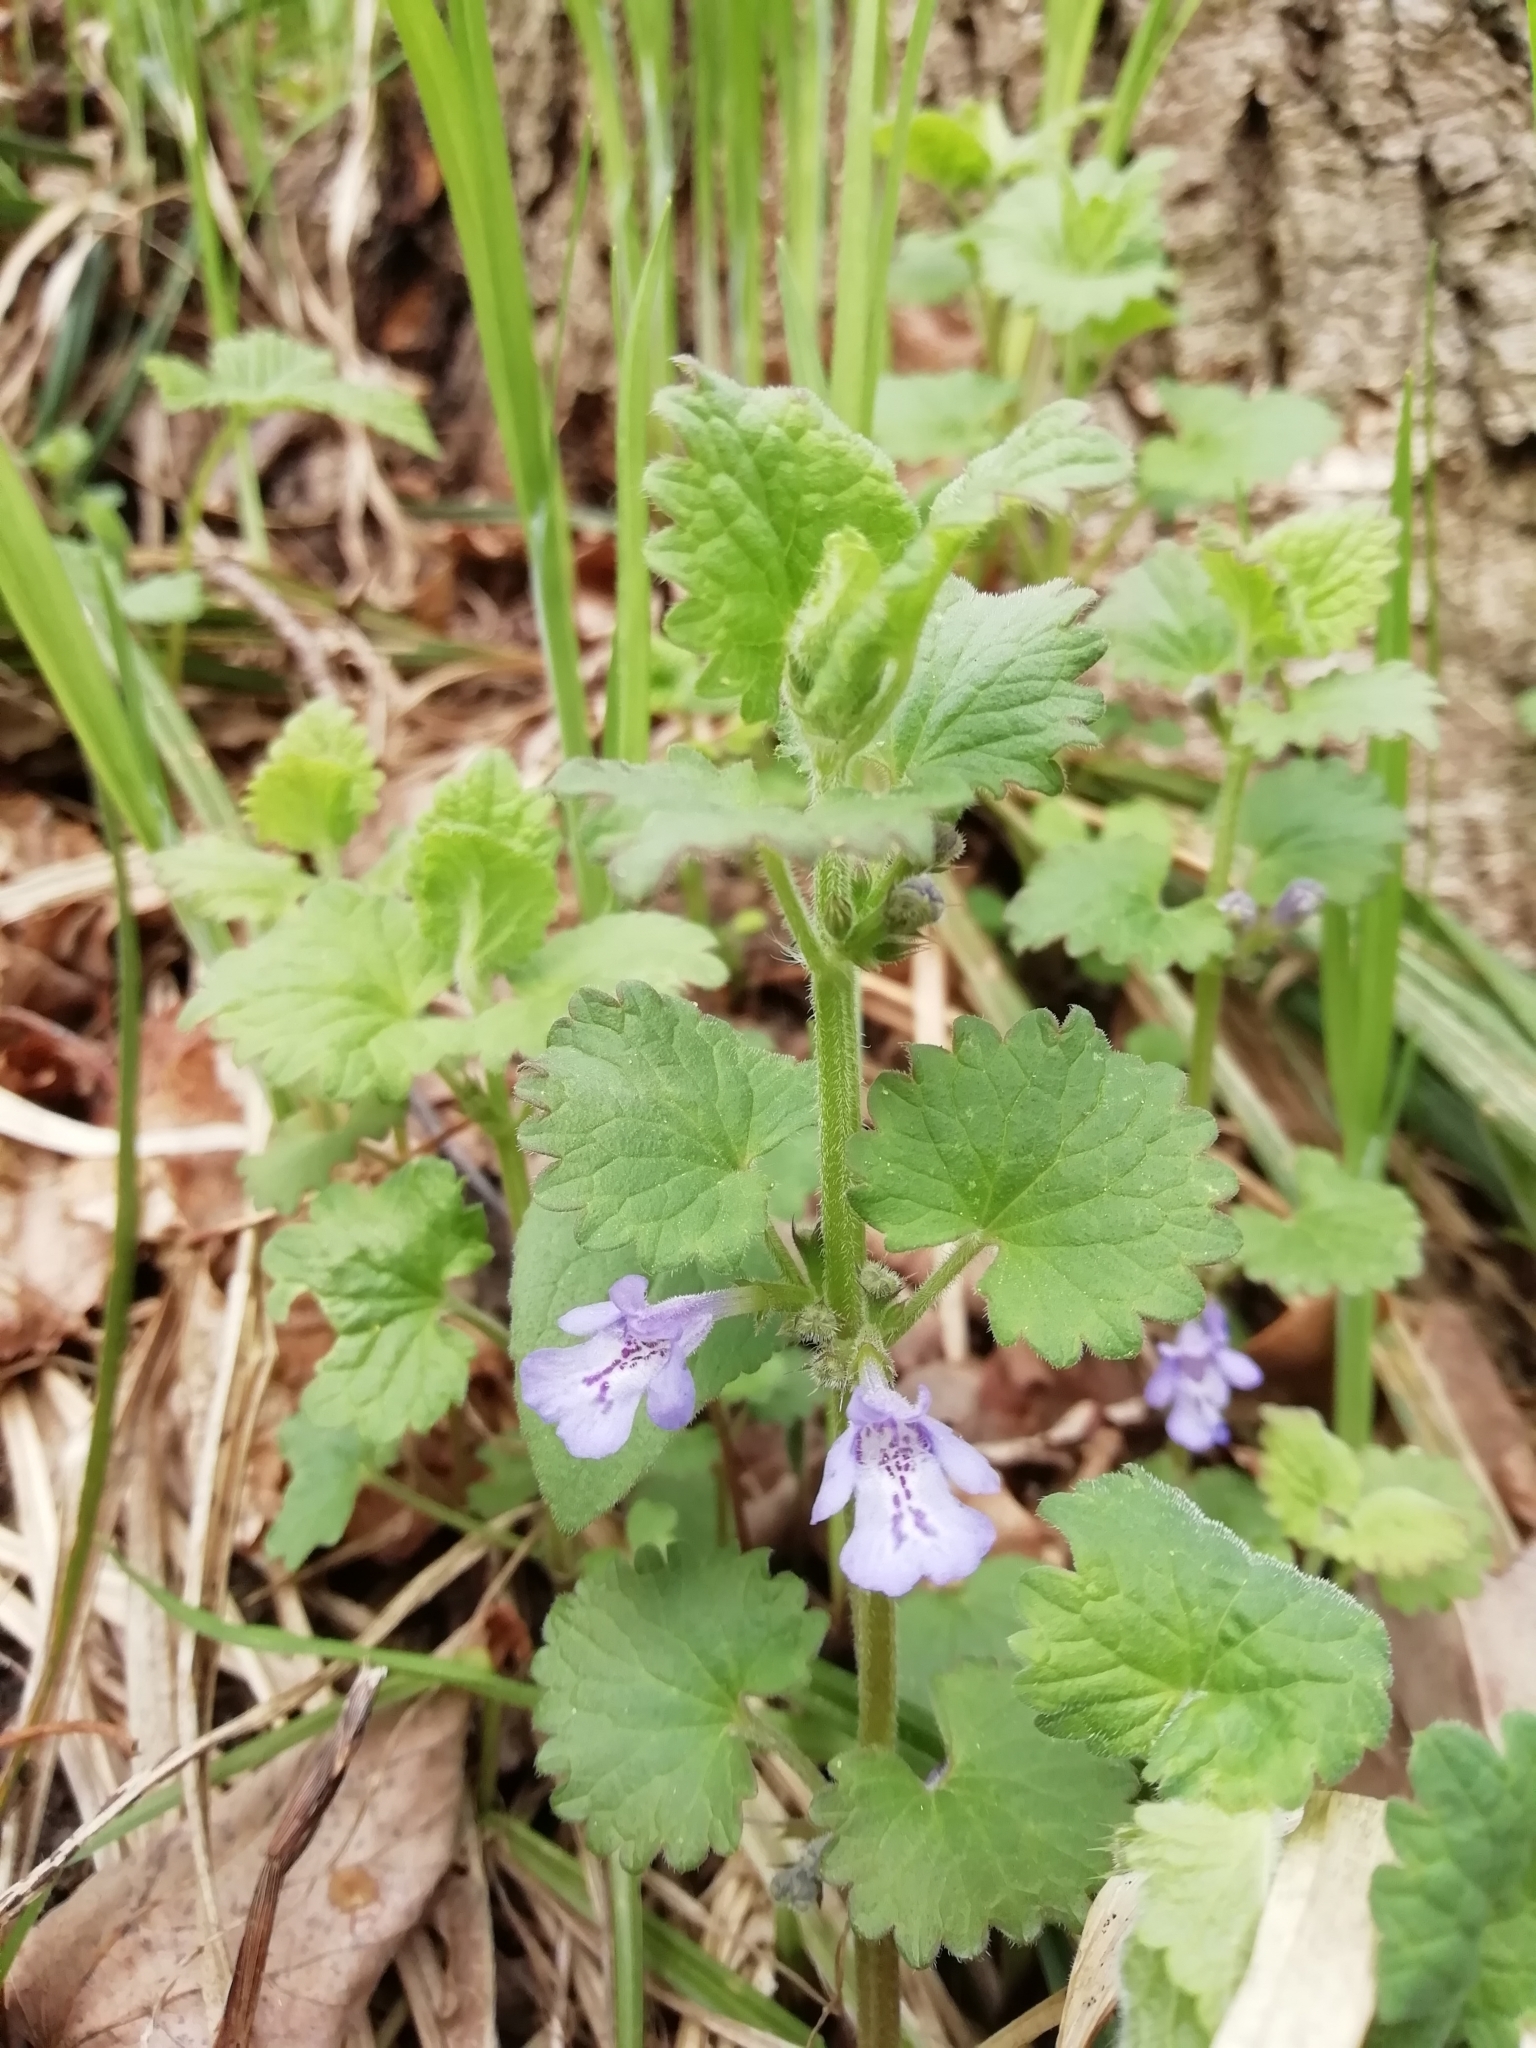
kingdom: Plantae
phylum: Tracheophyta
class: Magnoliopsida
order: Lamiales
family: Lamiaceae
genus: Glechoma
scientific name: Glechoma hederacea
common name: Ground ivy
